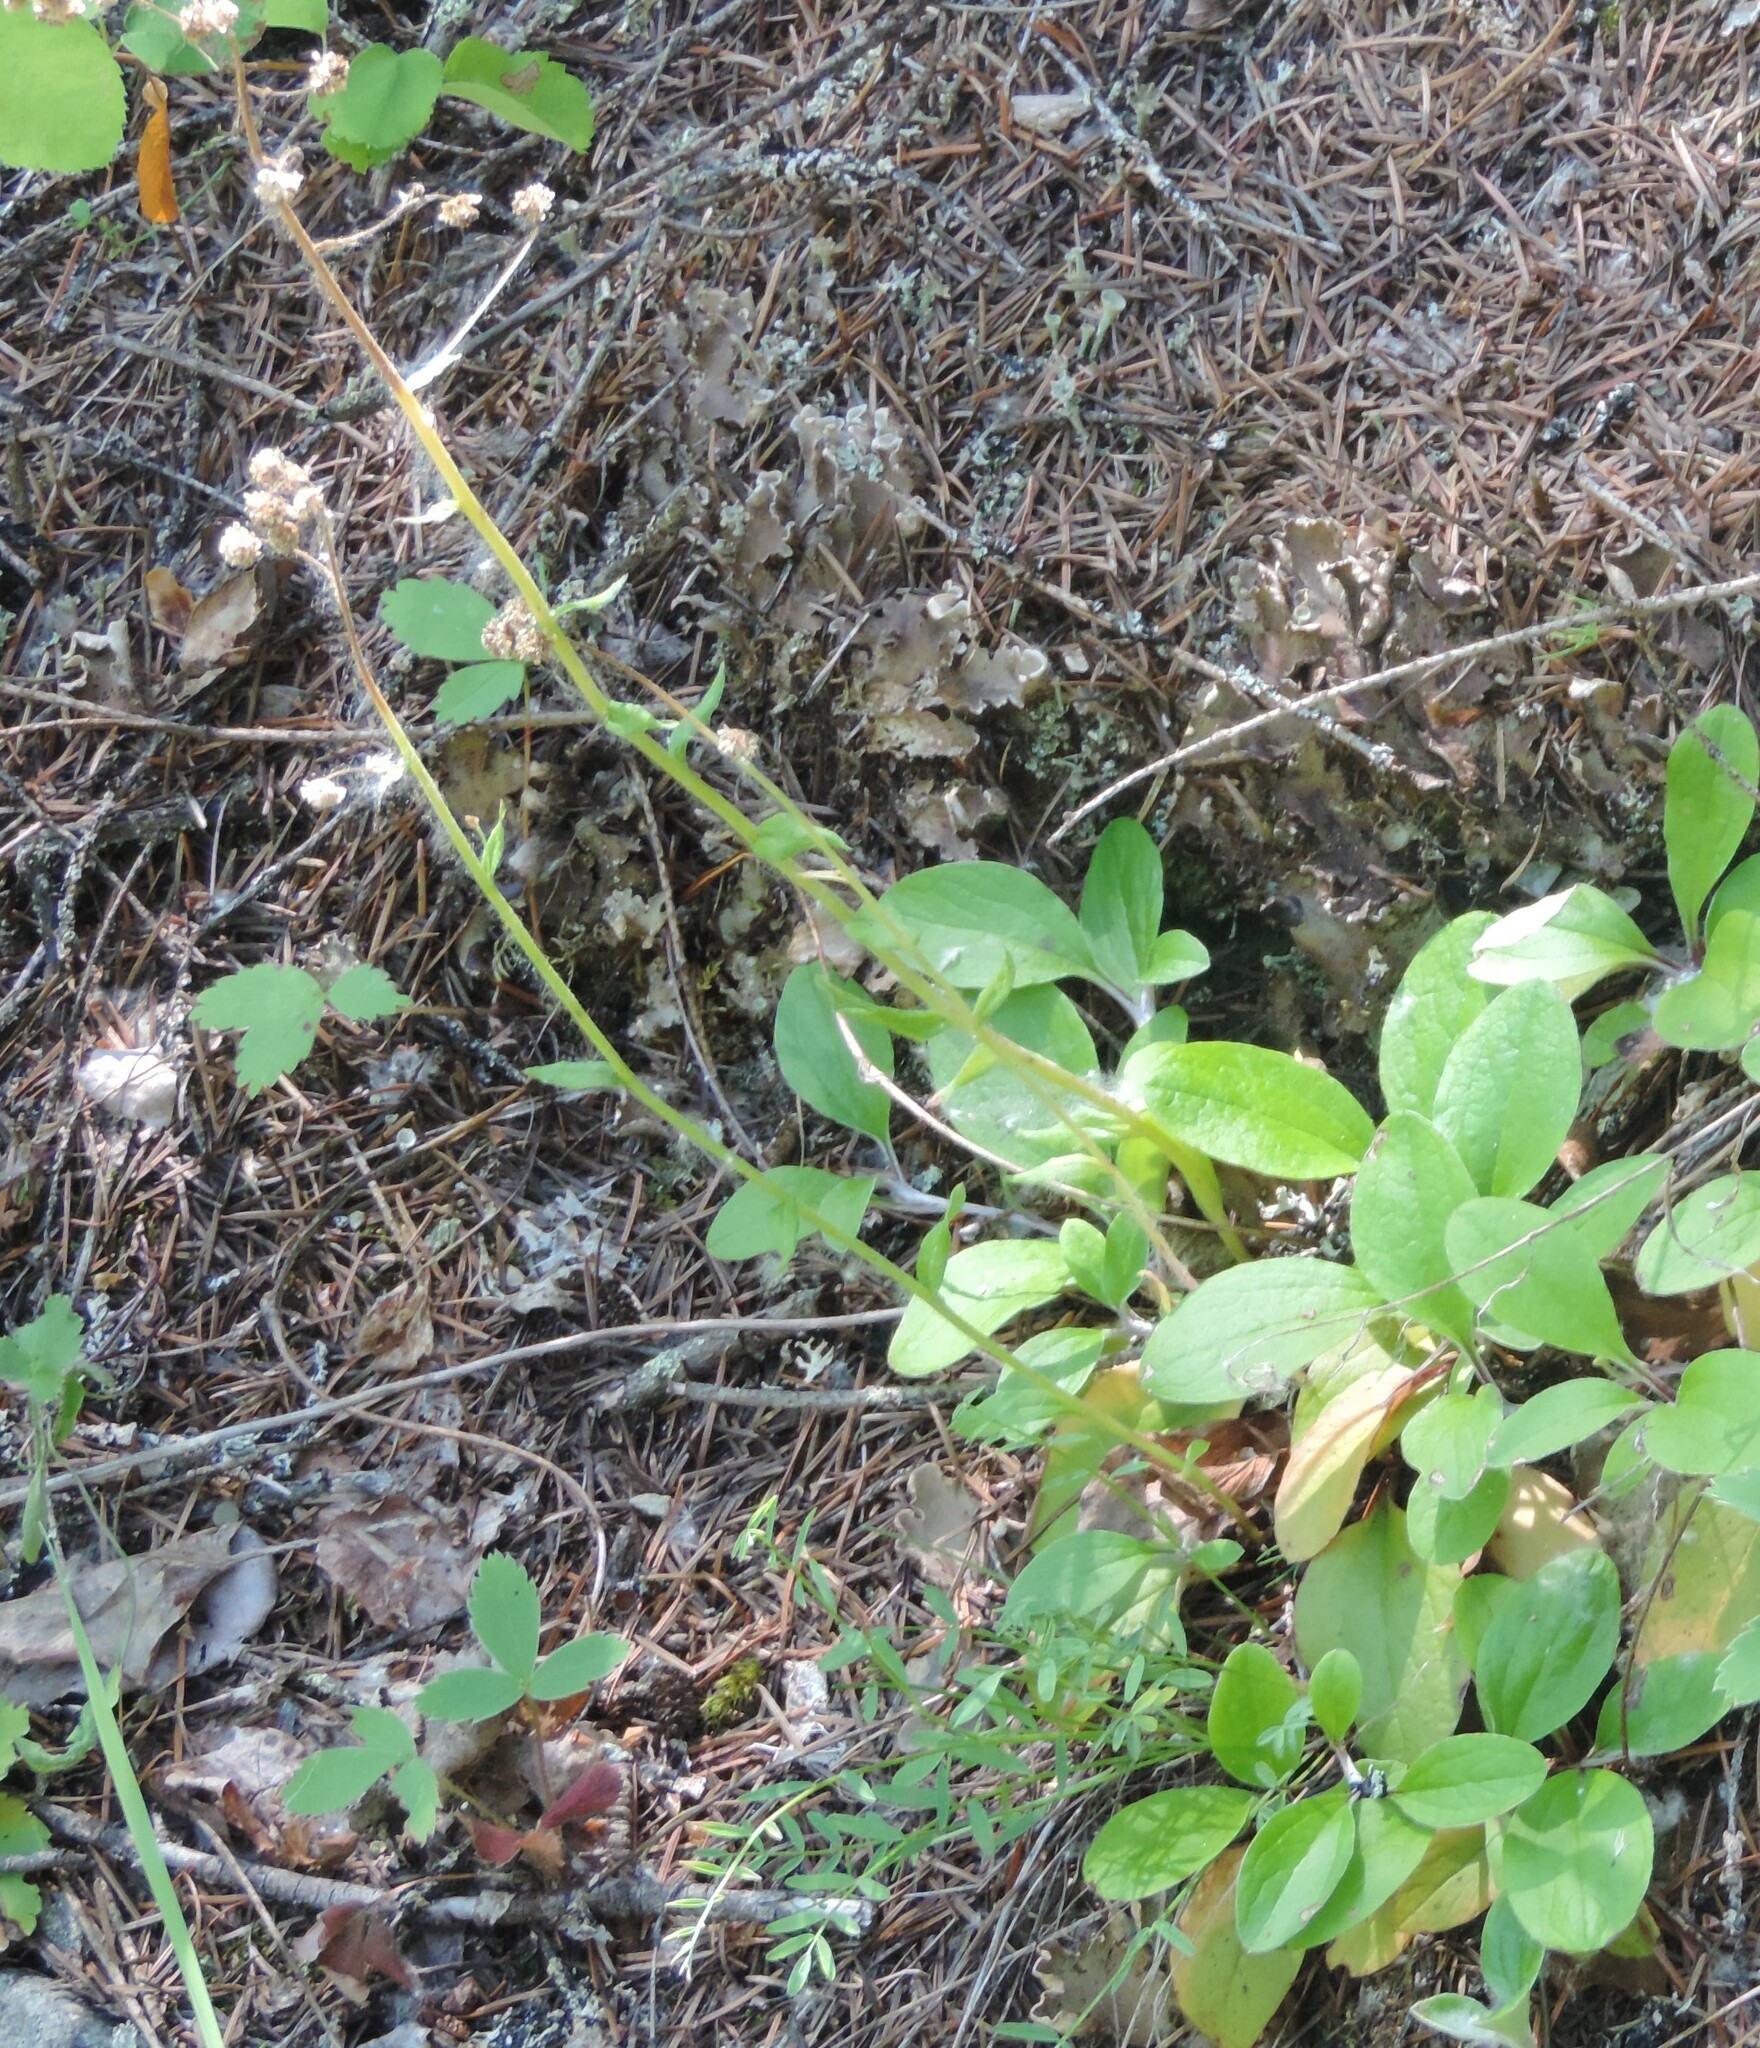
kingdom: Plantae
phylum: Tracheophyta
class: Magnoliopsida
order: Asterales
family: Asteraceae
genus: Antennaria
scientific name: Antennaria racemosa
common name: Racemose pussytoes
